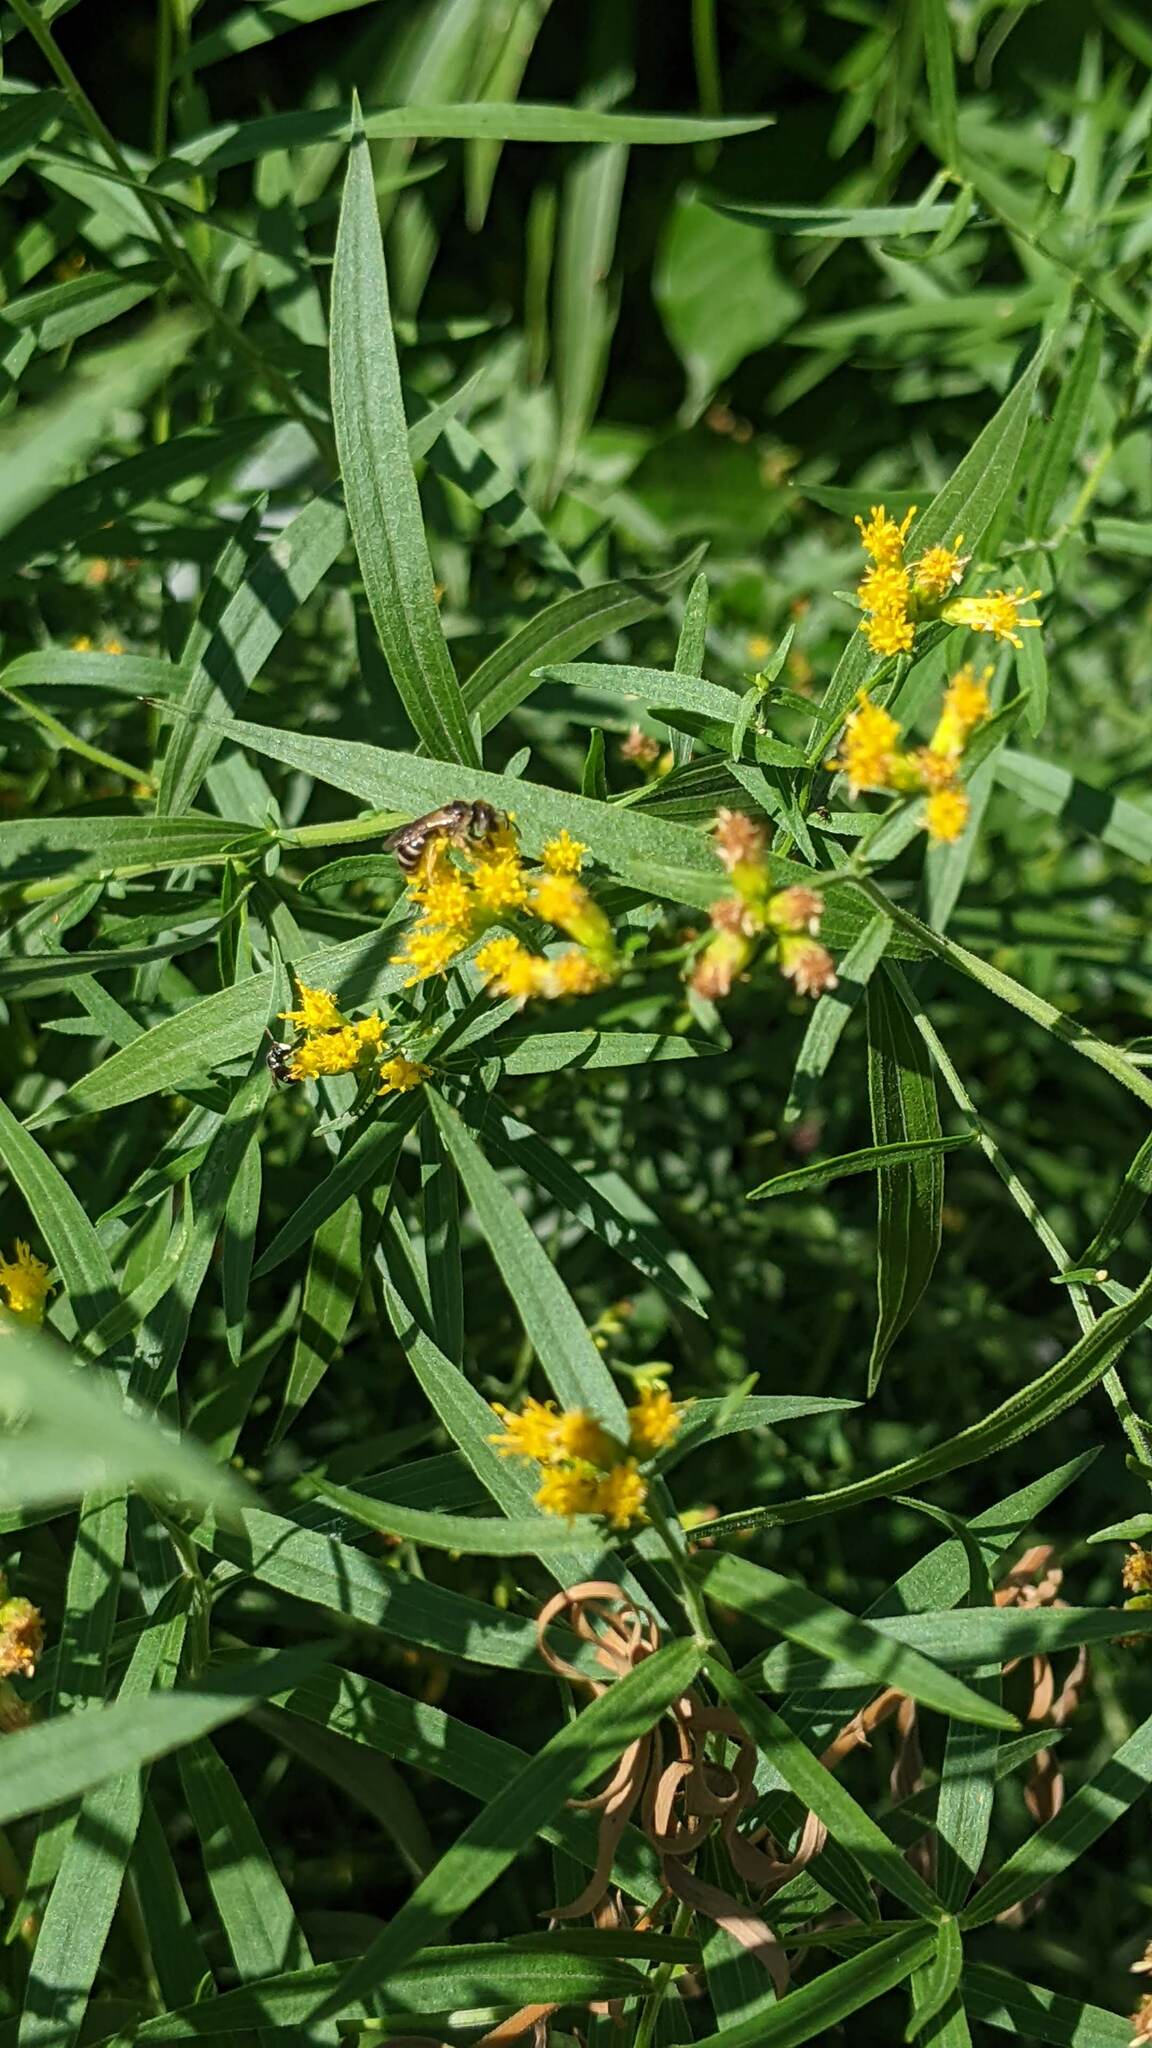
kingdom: Animalia
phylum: Arthropoda
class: Insecta
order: Hymenoptera
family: Halictidae
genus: Halictus
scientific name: Halictus ligatus
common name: Ligated furrow bee
